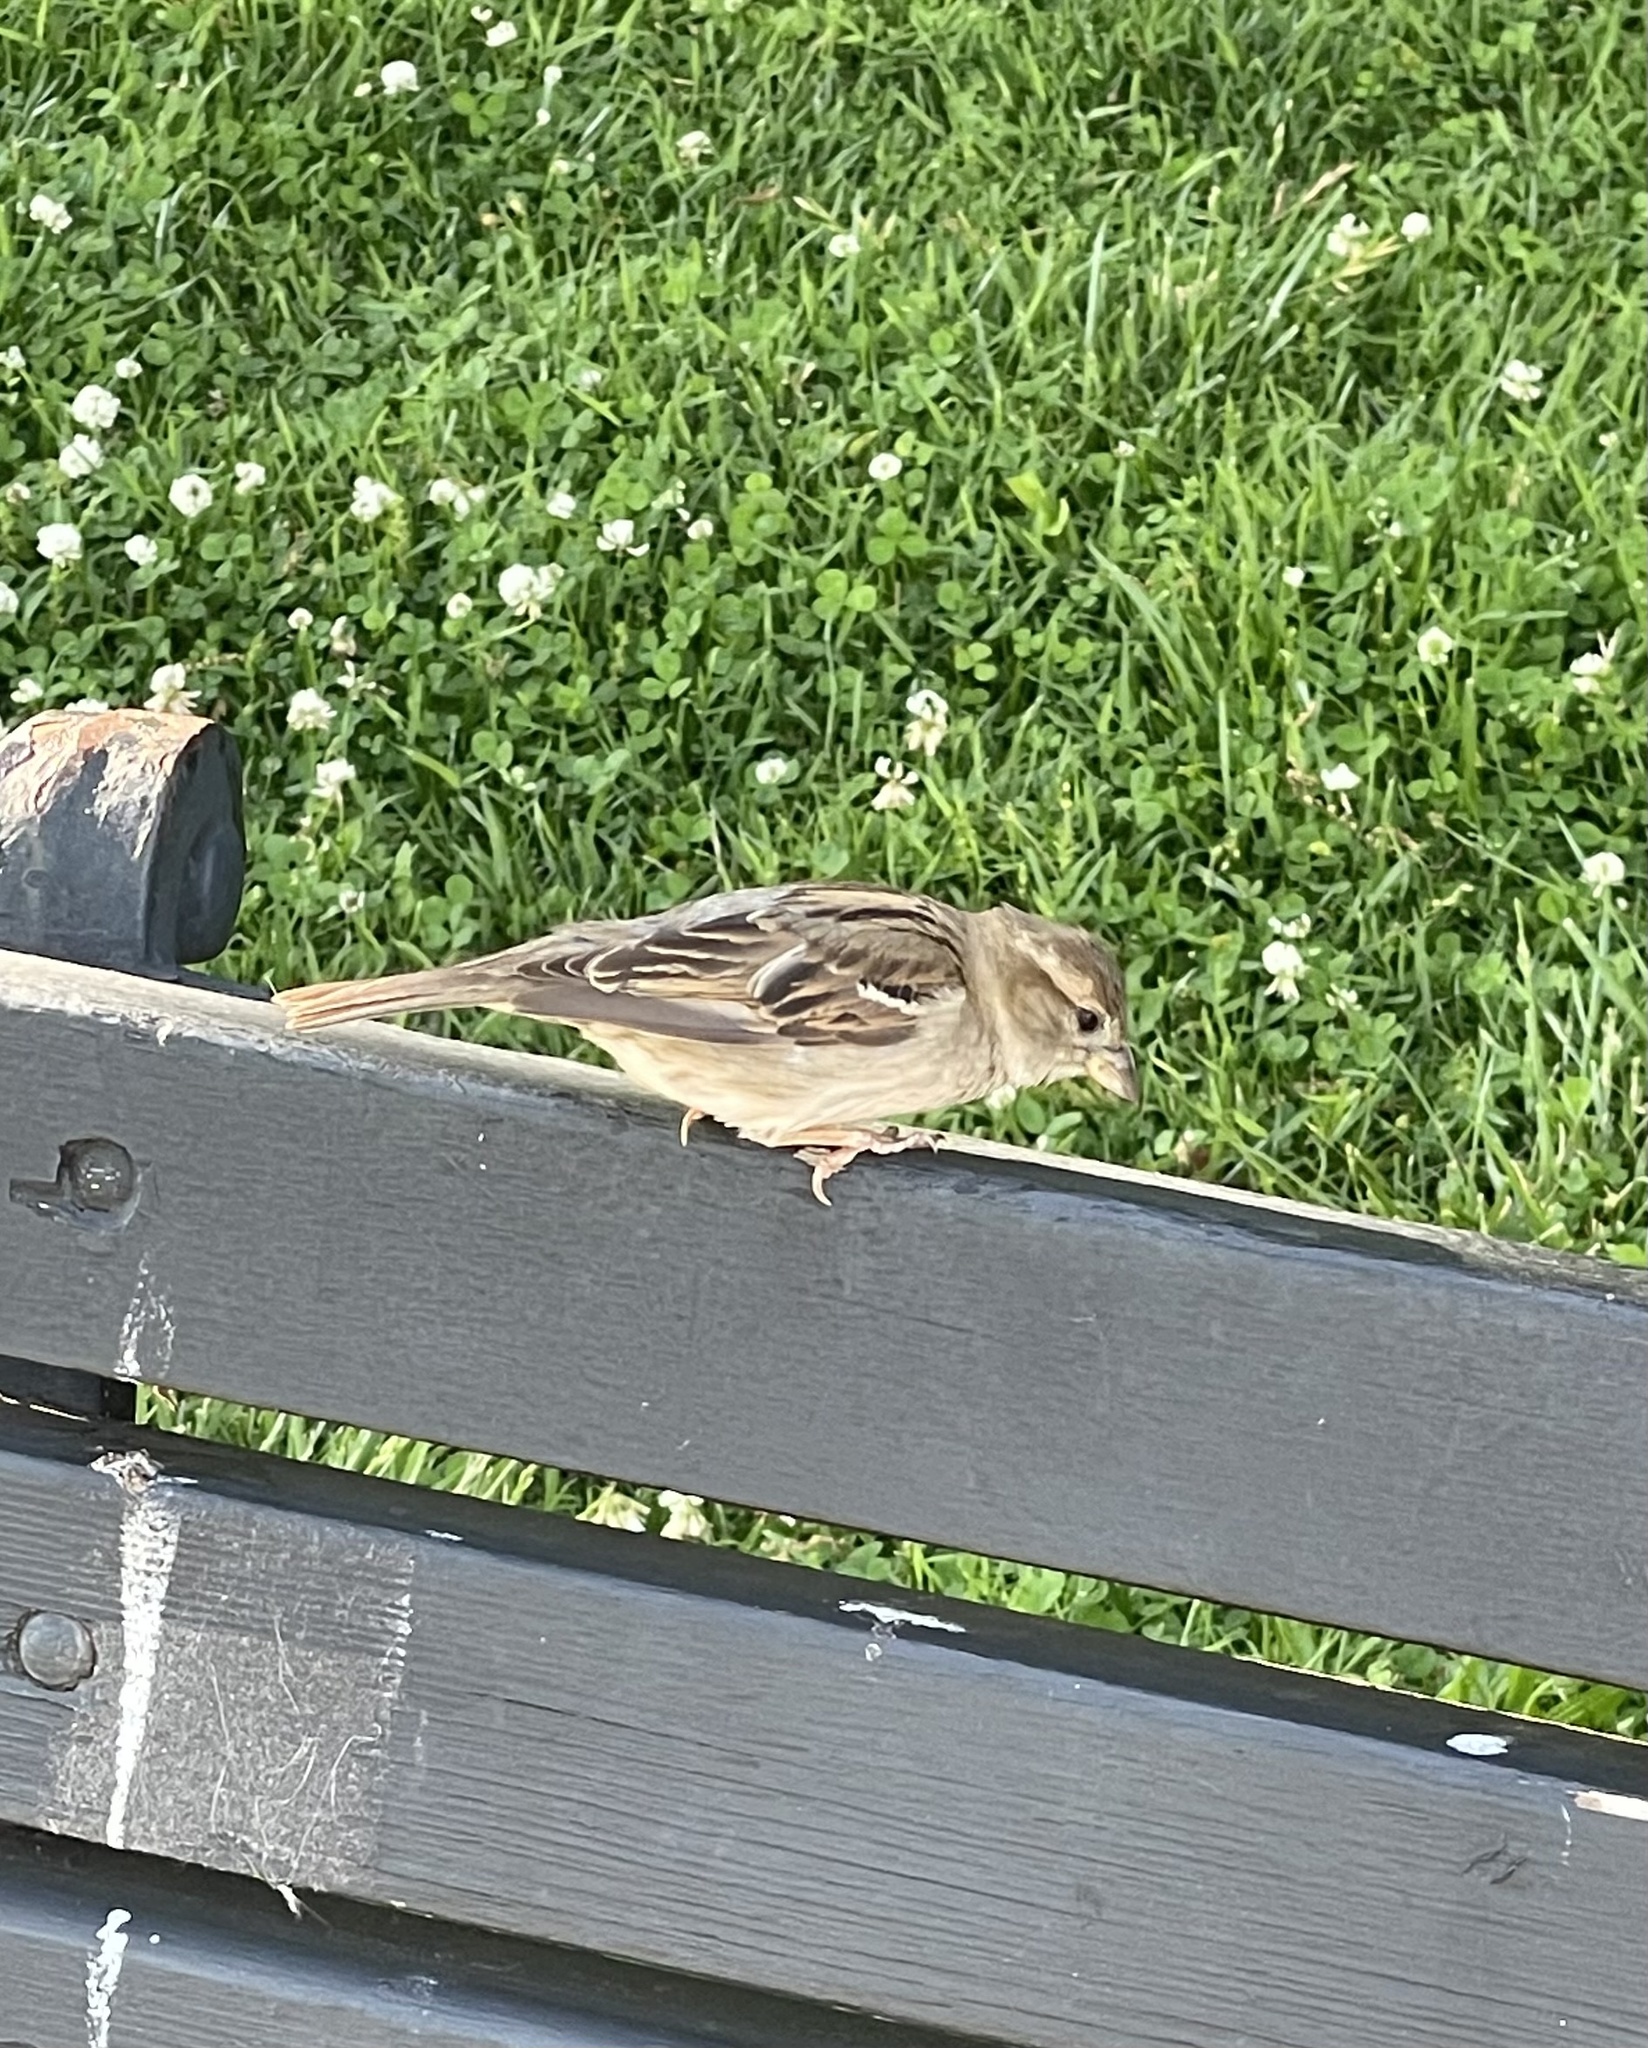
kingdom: Animalia
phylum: Chordata
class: Aves
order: Passeriformes
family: Passeridae
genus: Passer
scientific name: Passer domesticus
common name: House sparrow
